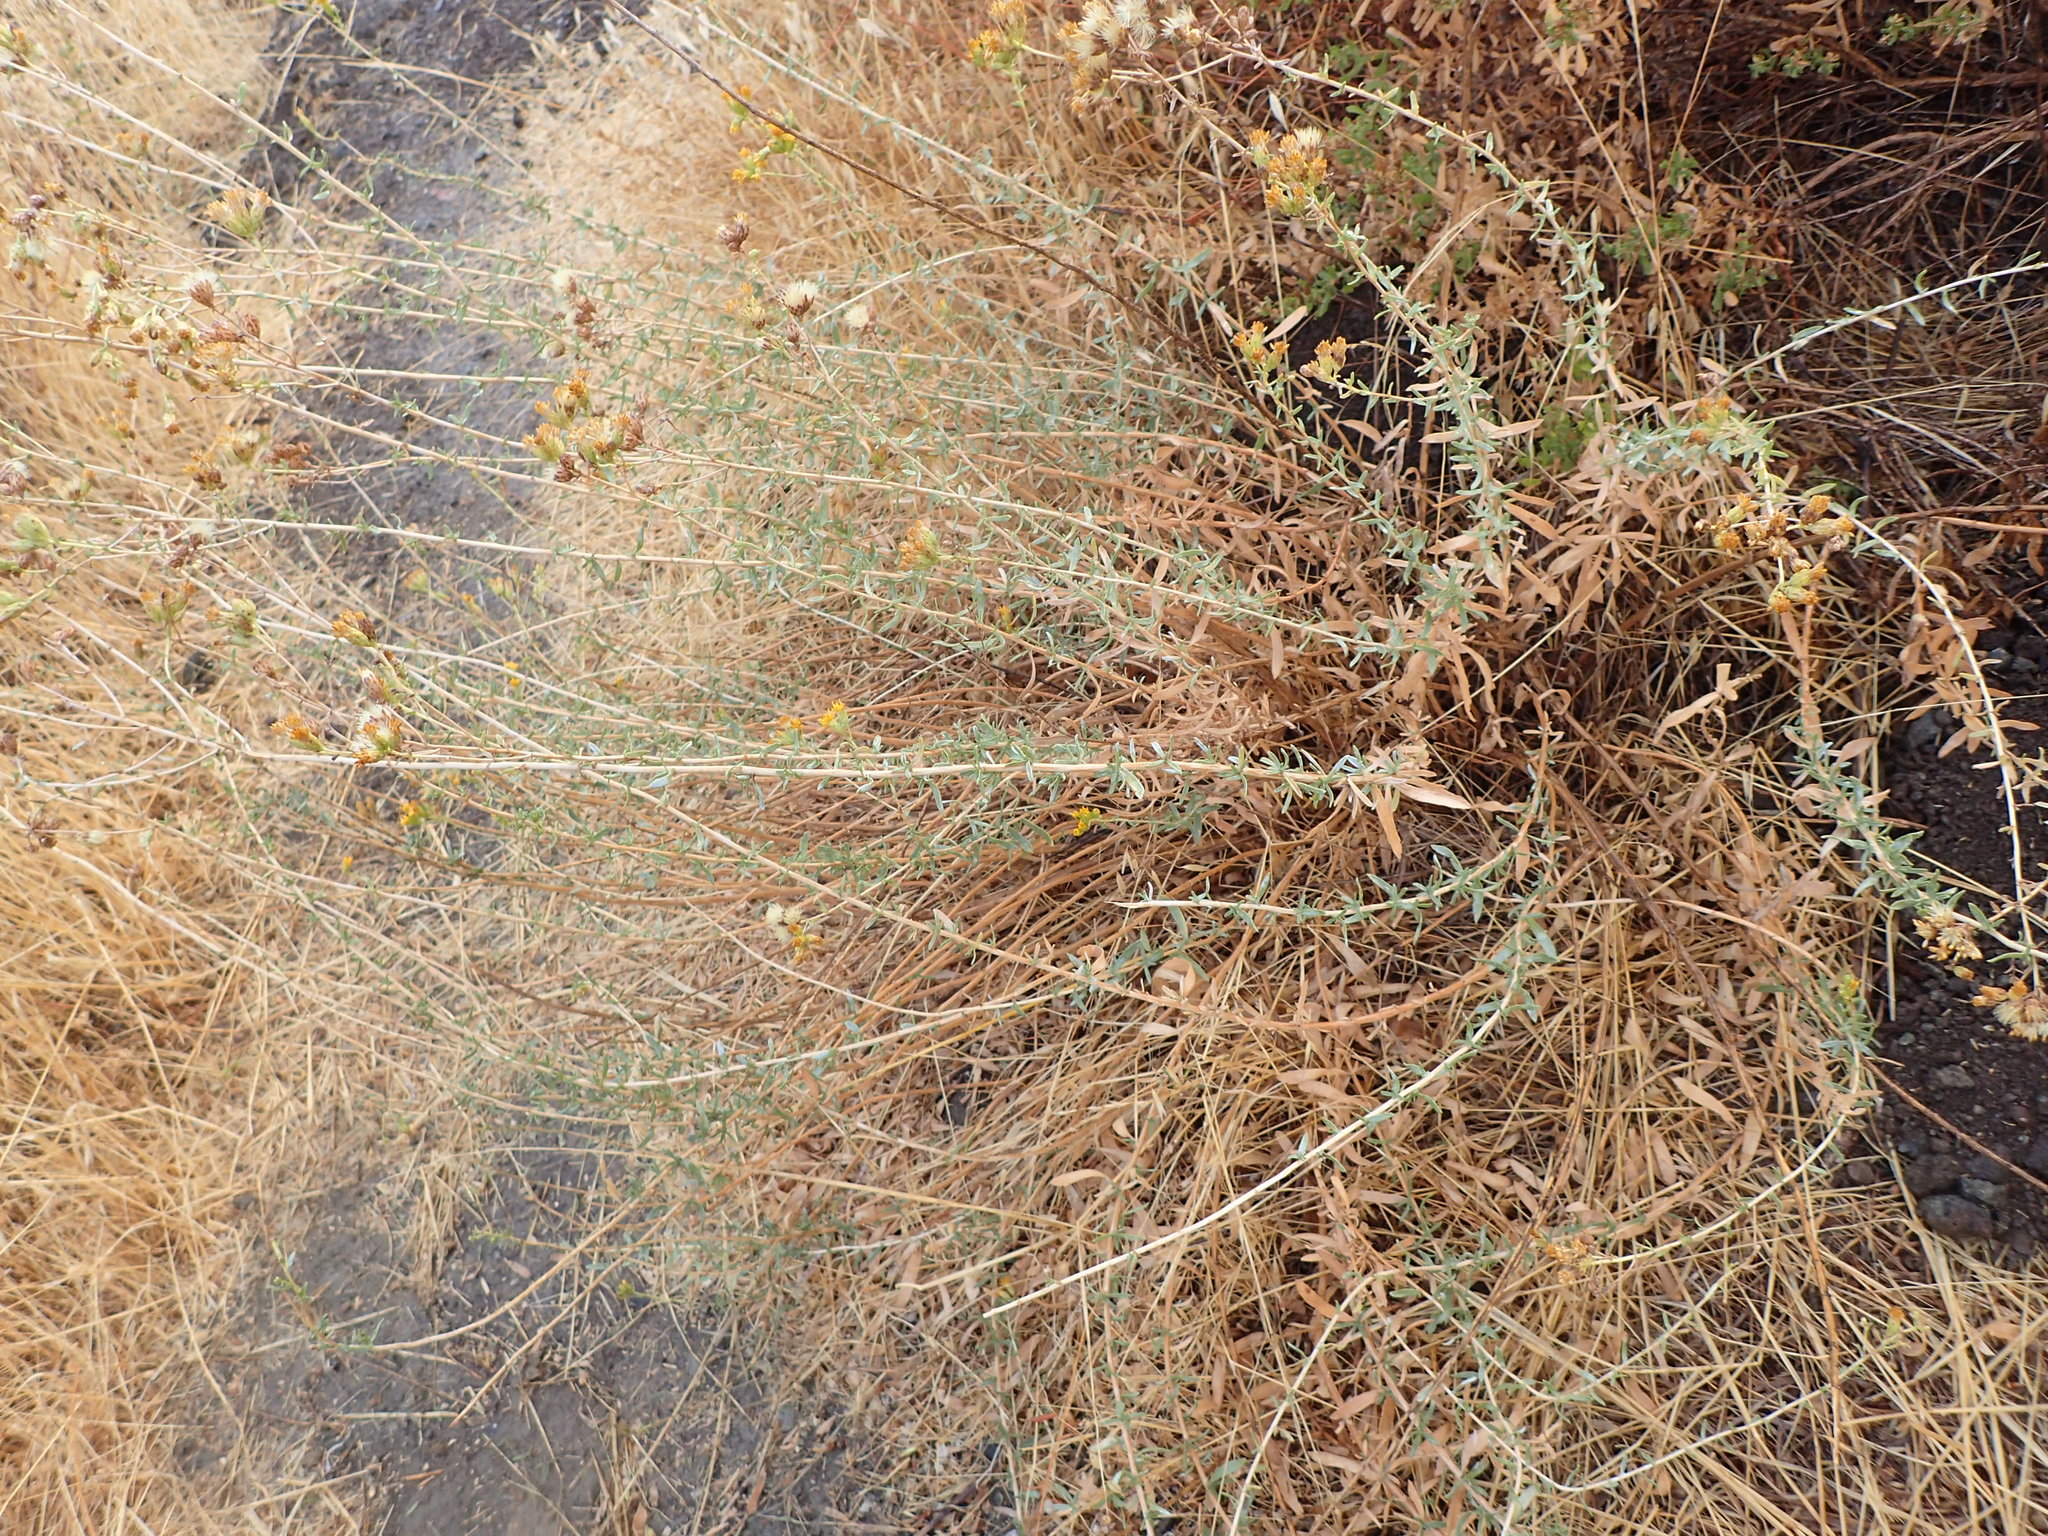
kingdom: Plantae
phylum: Tracheophyta
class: Magnoliopsida
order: Asterales
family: Asteraceae
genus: Isocoma
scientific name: Isocoma menziesii
